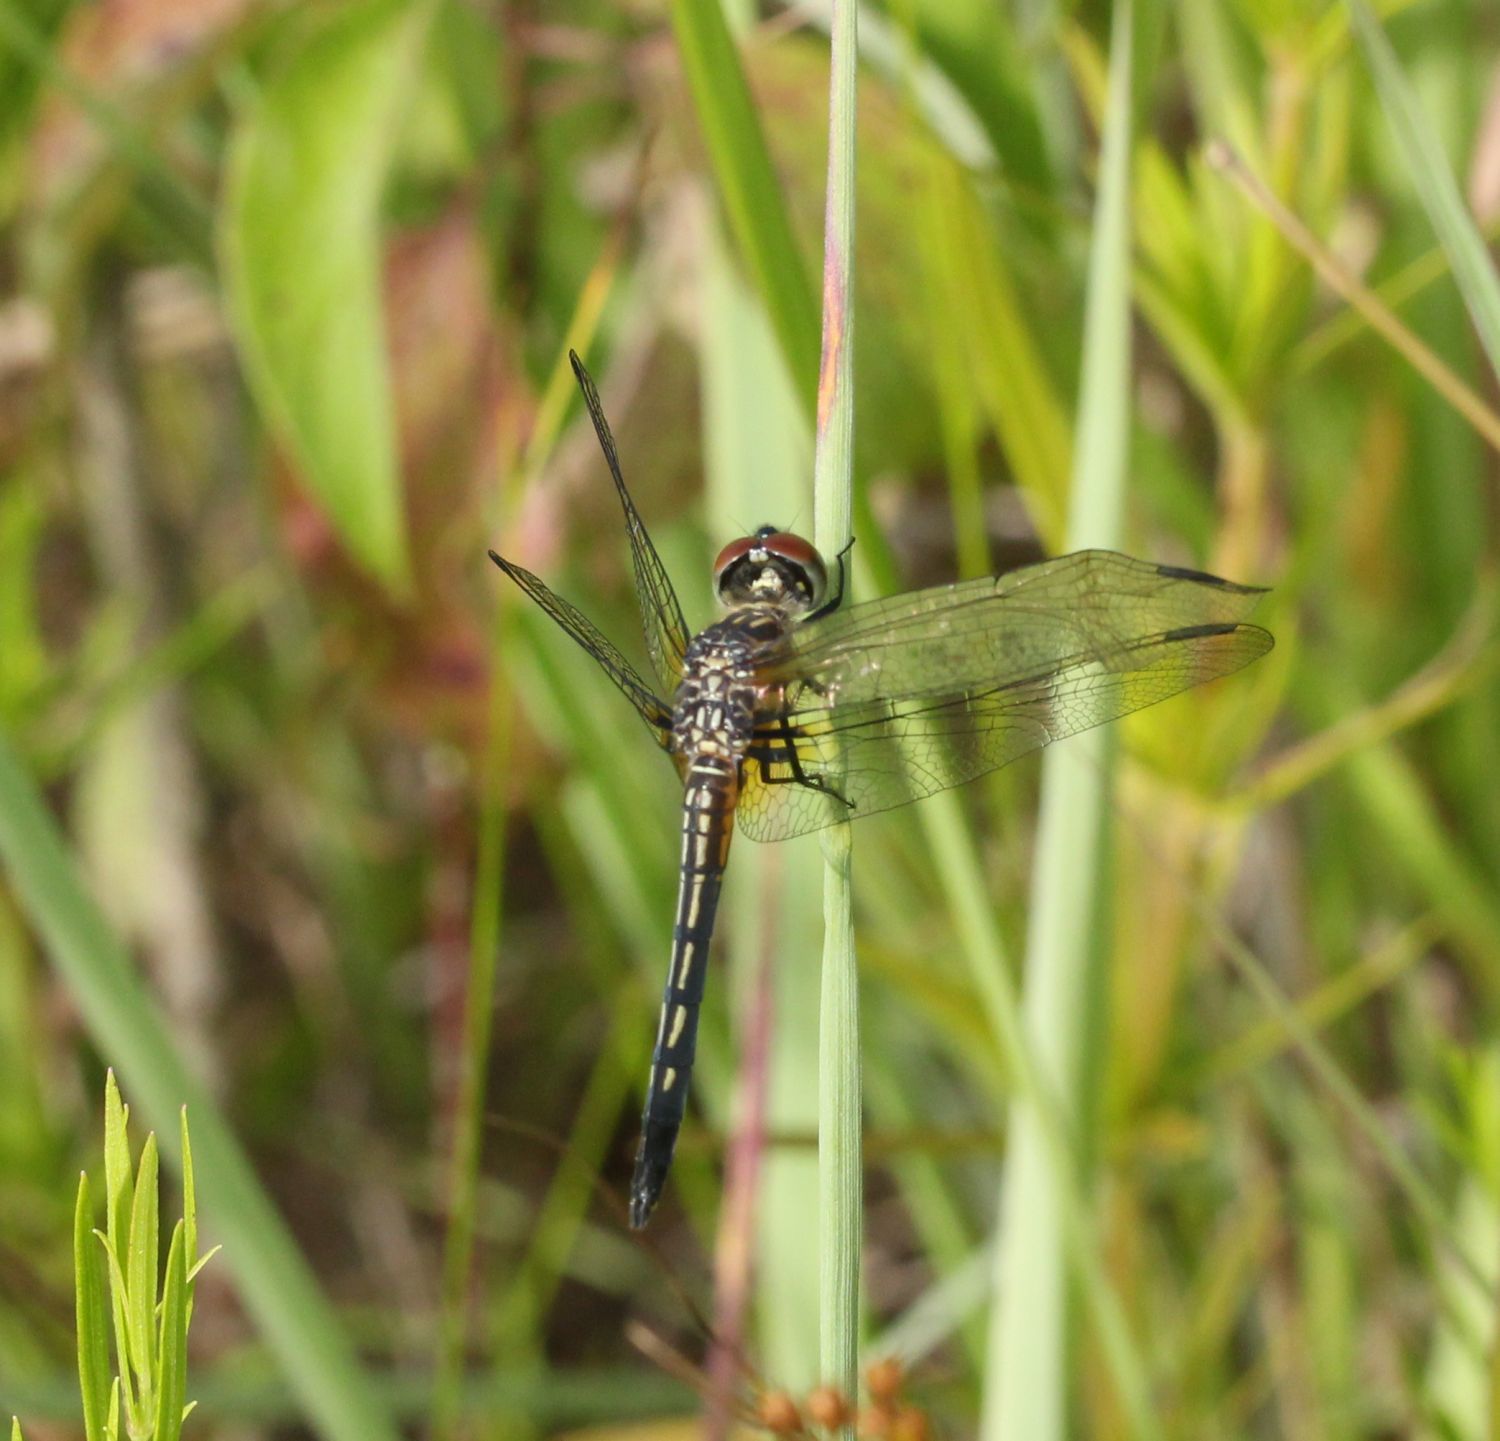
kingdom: Animalia
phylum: Arthropoda
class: Insecta
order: Odonata
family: Libellulidae
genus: Pachydiplax
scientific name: Pachydiplax longipennis
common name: Blue dasher
